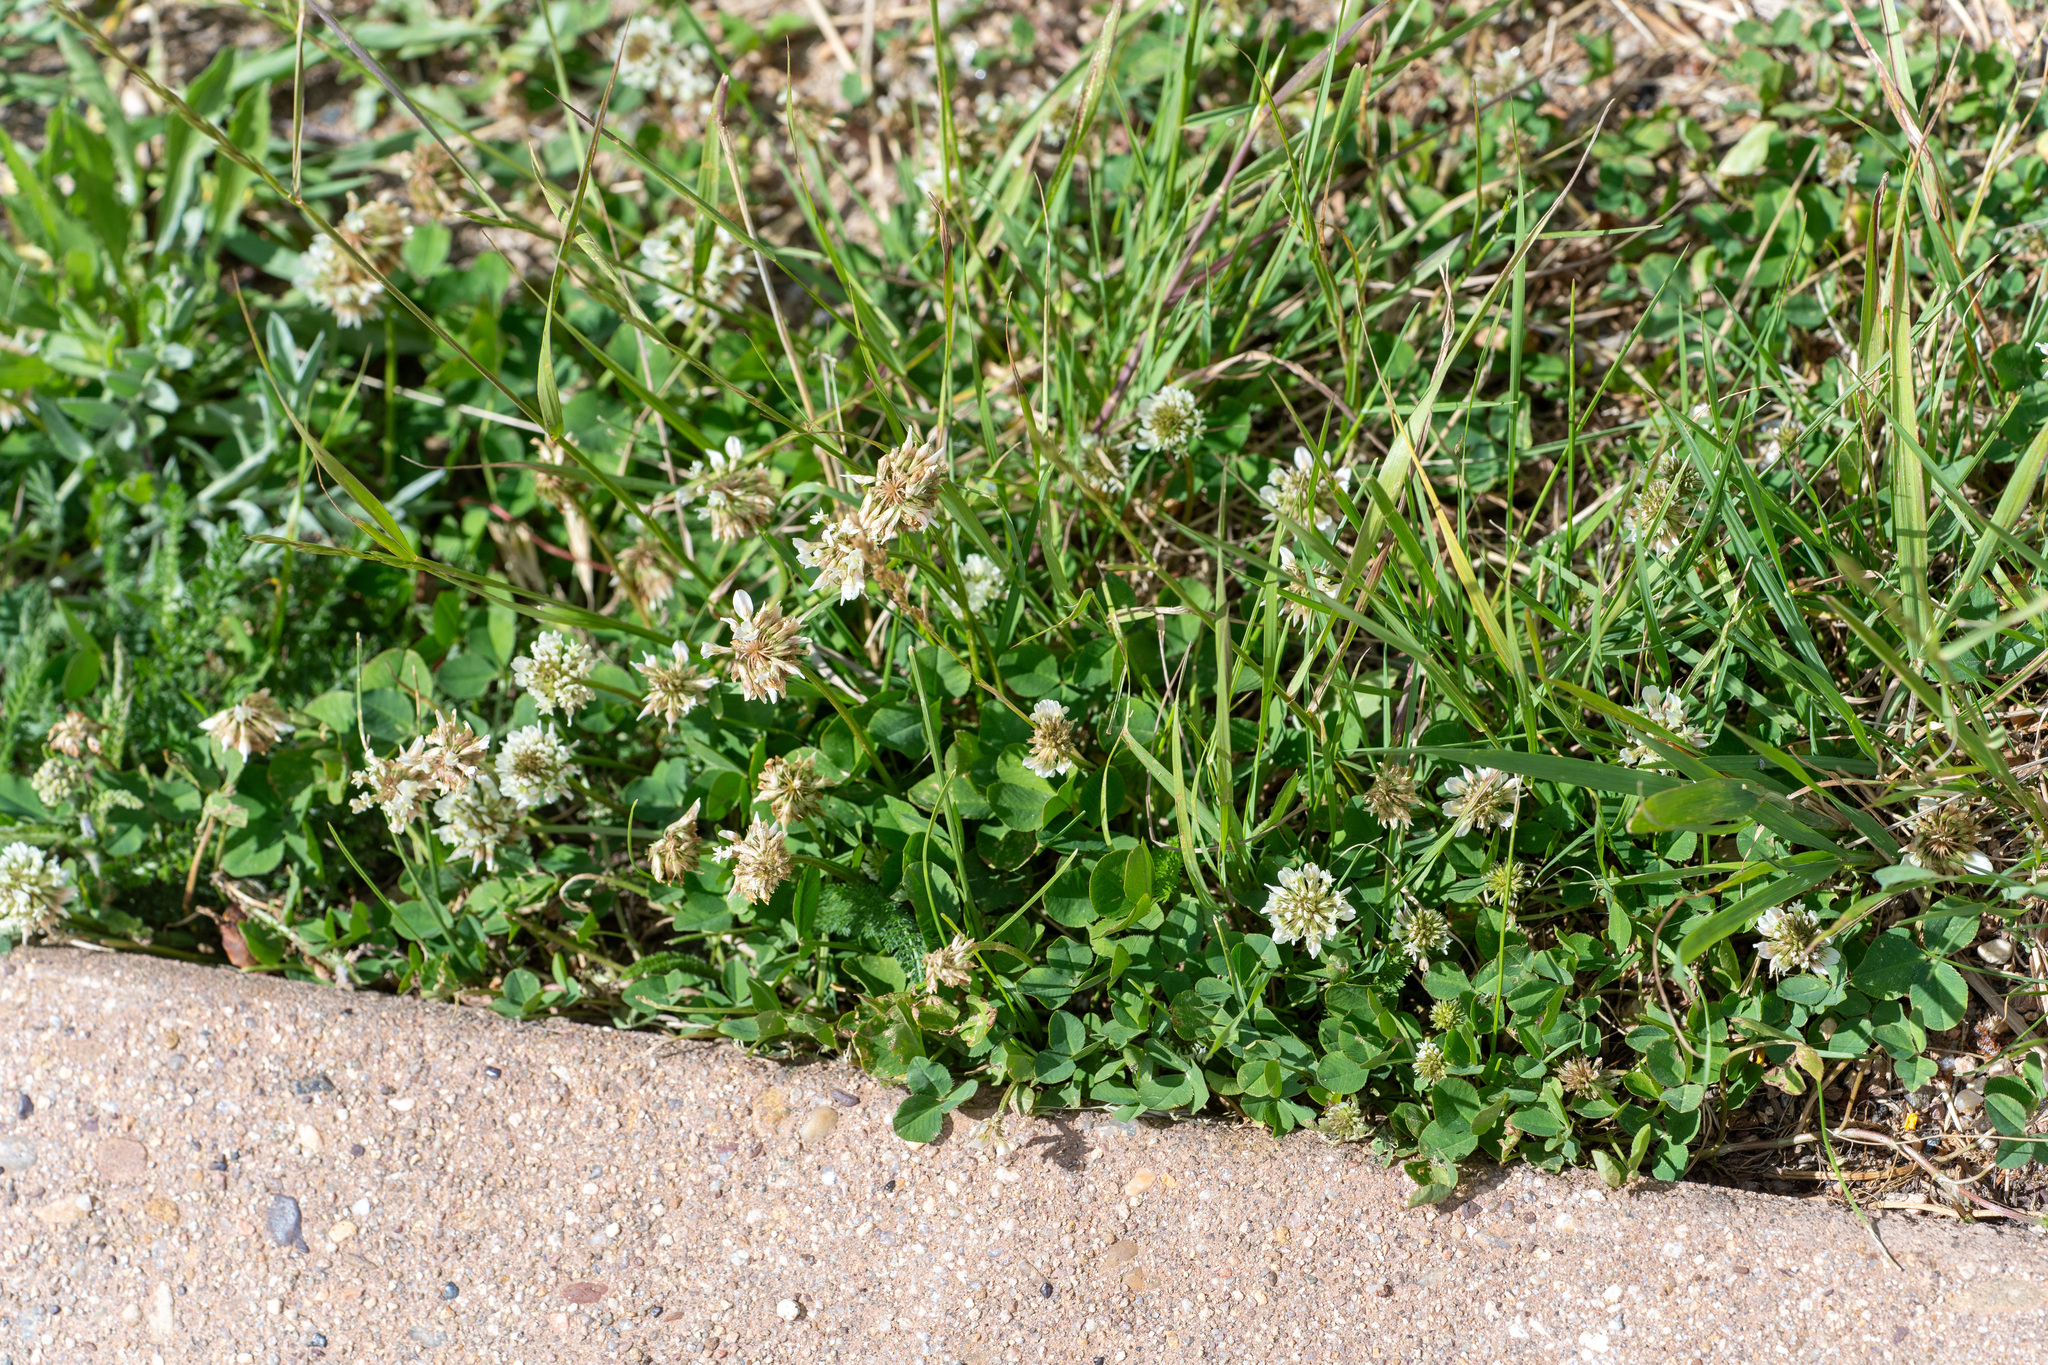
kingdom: Plantae
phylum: Tracheophyta
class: Magnoliopsida
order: Fabales
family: Fabaceae
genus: Trifolium
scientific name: Trifolium repens
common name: White clover
